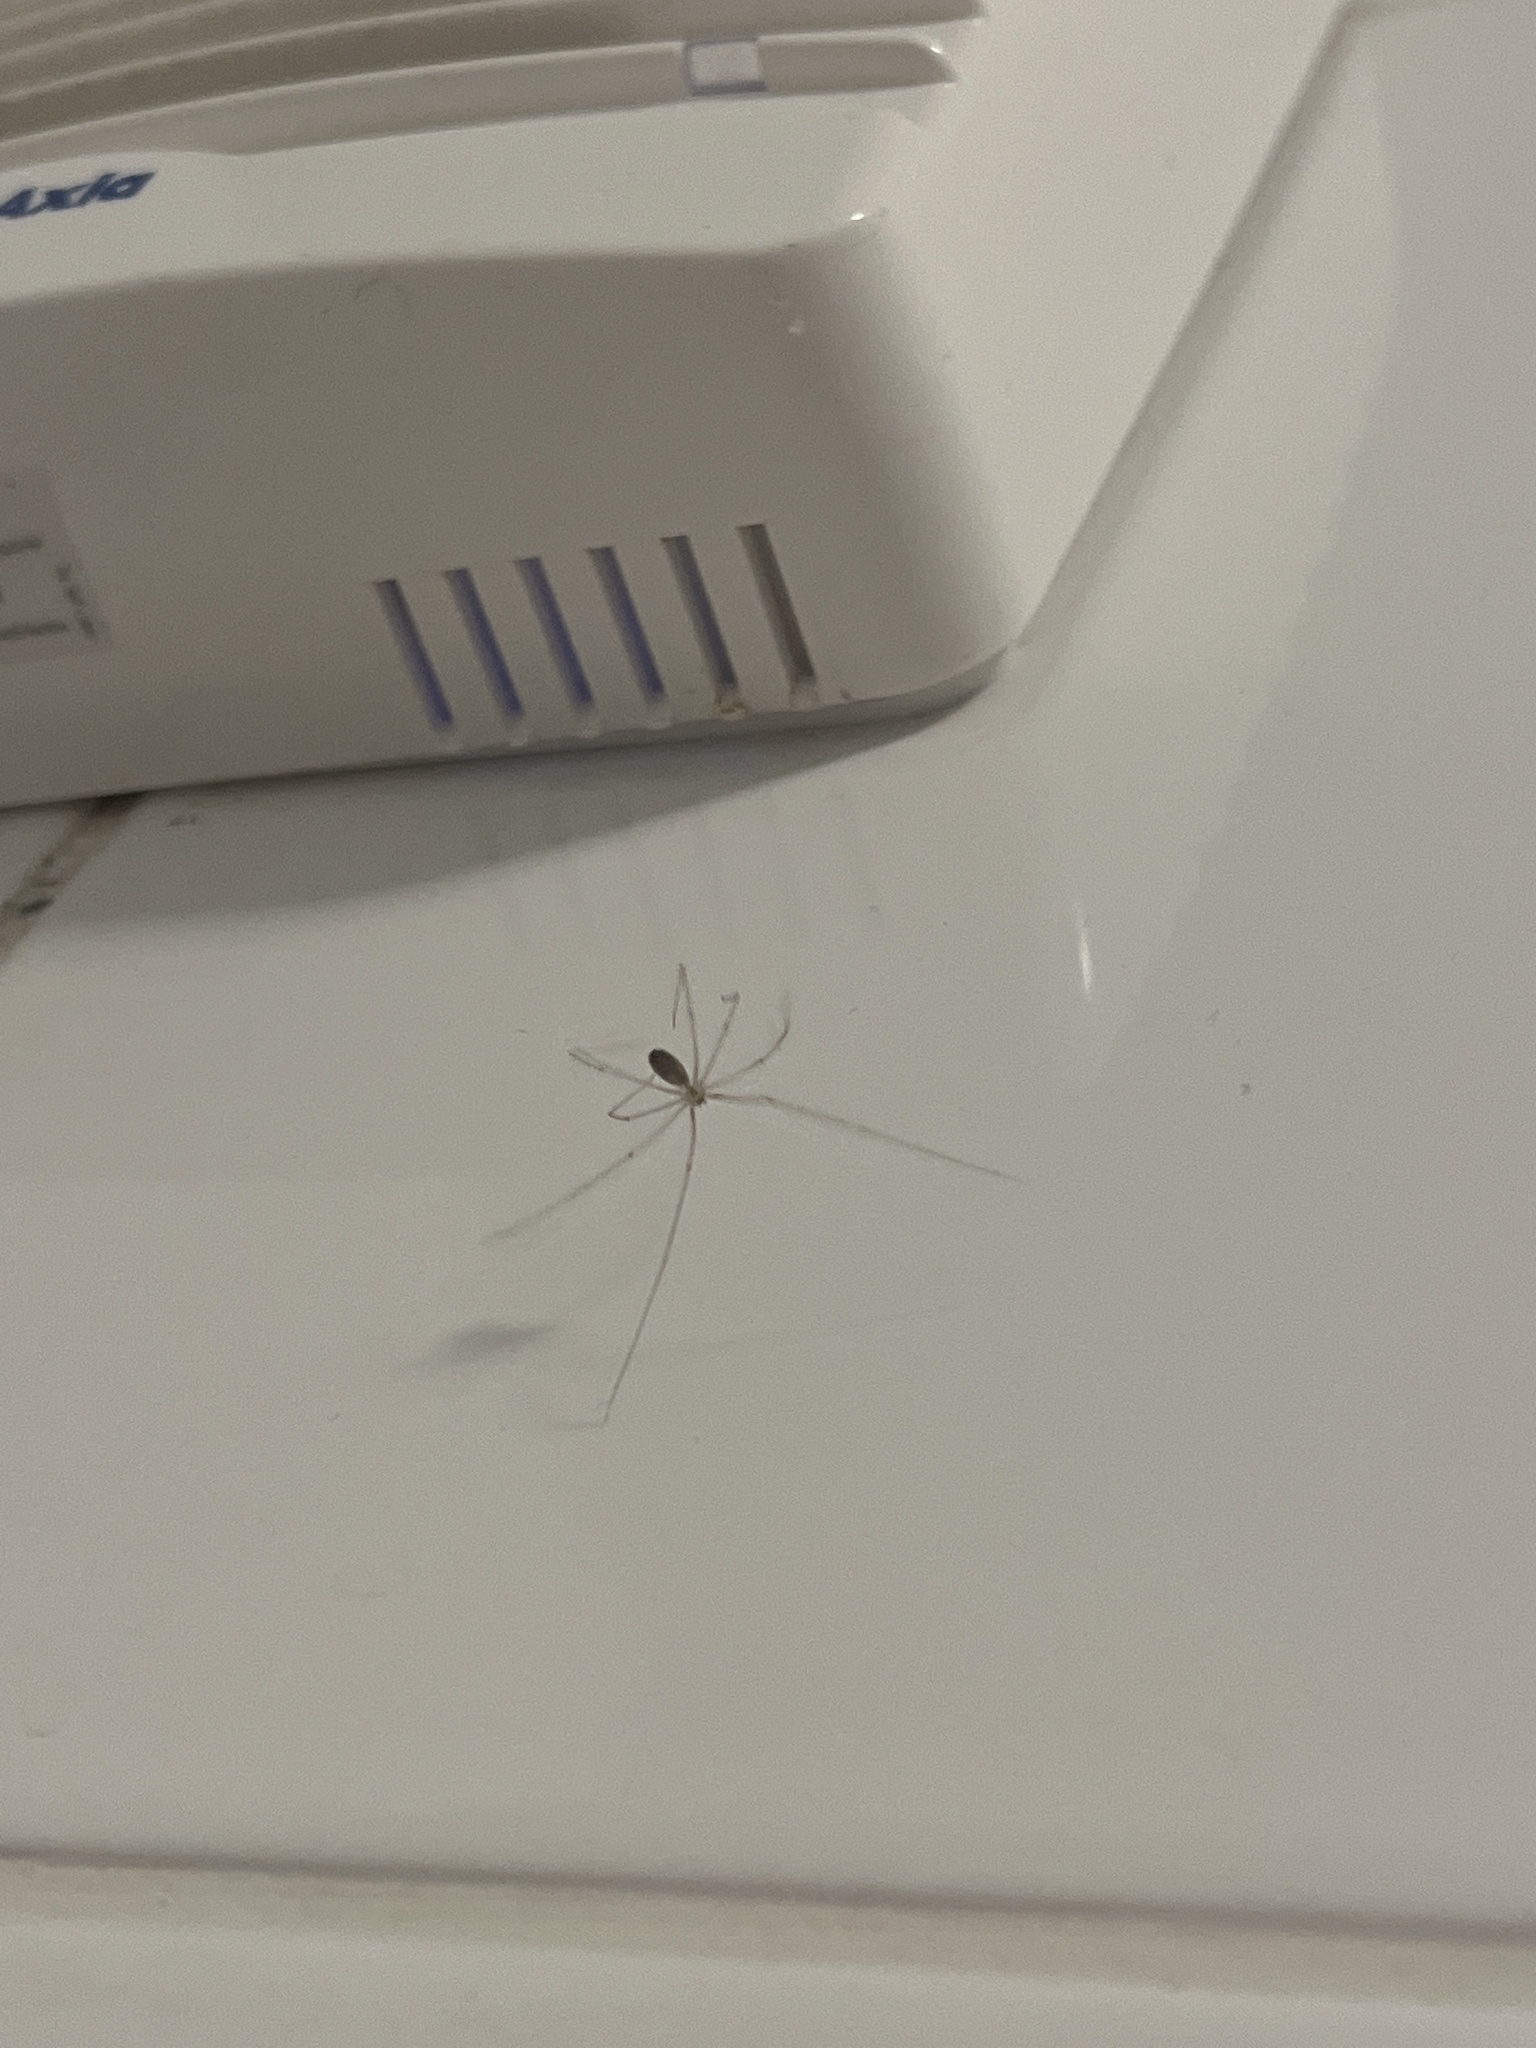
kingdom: Animalia
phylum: Arthropoda
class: Arachnida
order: Araneae
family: Pholcidae
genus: Pholcus
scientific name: Pholcus phalangioides
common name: Longbodied cellar spider
